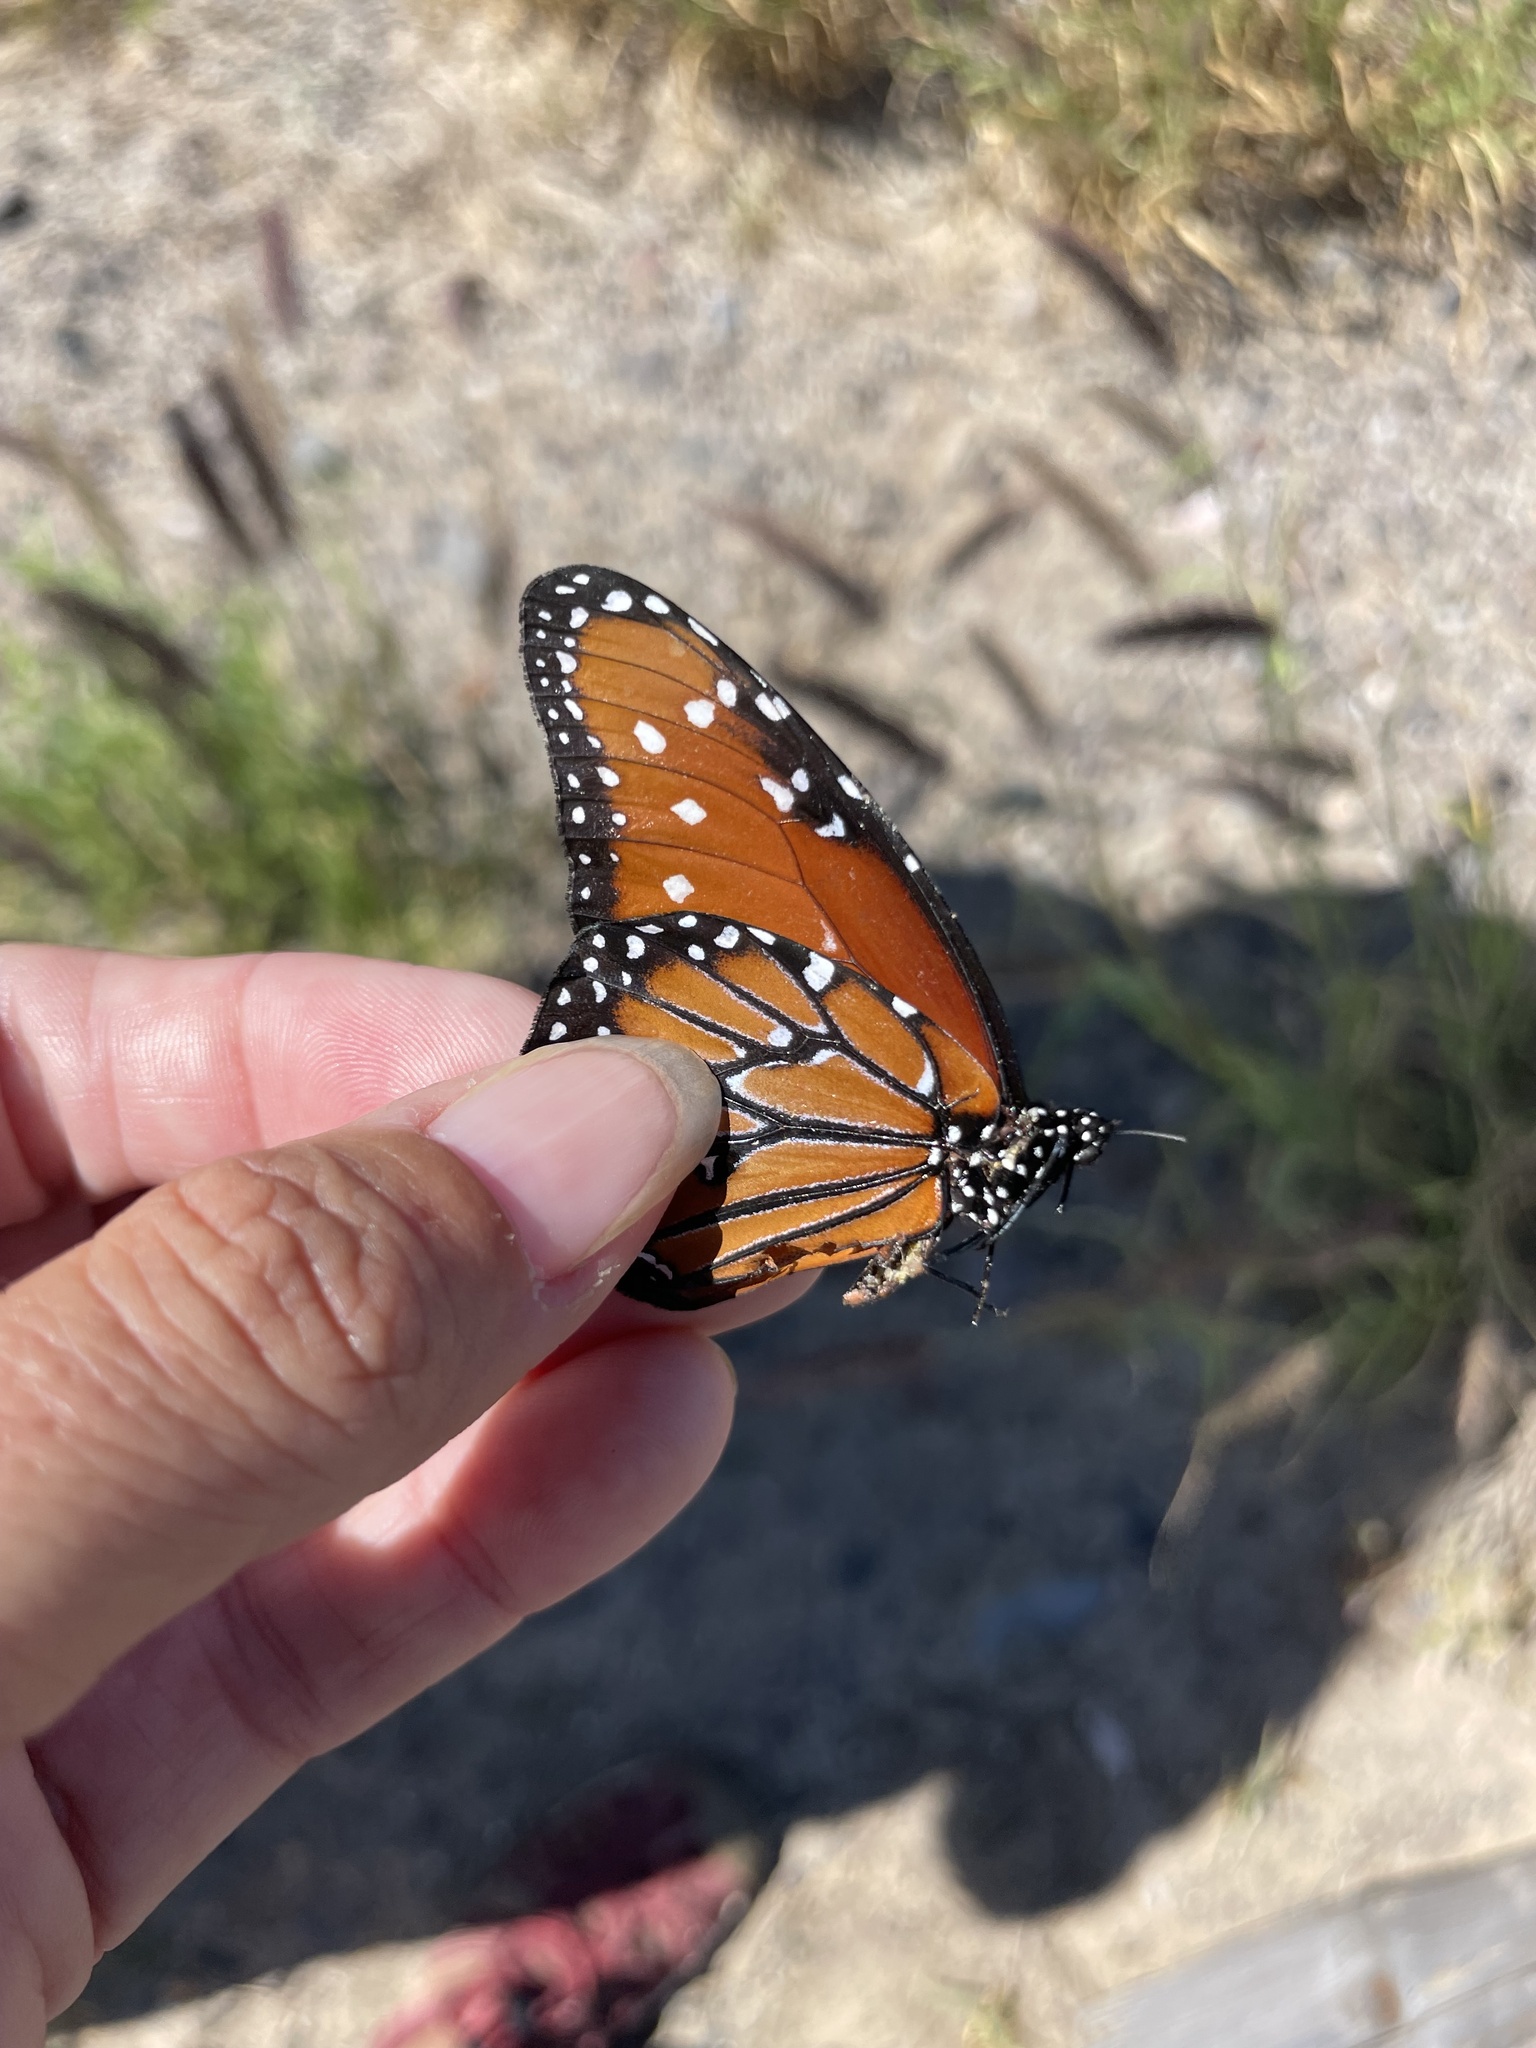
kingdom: Animalia
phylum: Arthropoda
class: Insecta
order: Lepidoptera
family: Nymphalidae
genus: Danaus
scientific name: Danaus gilippus
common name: Queen
